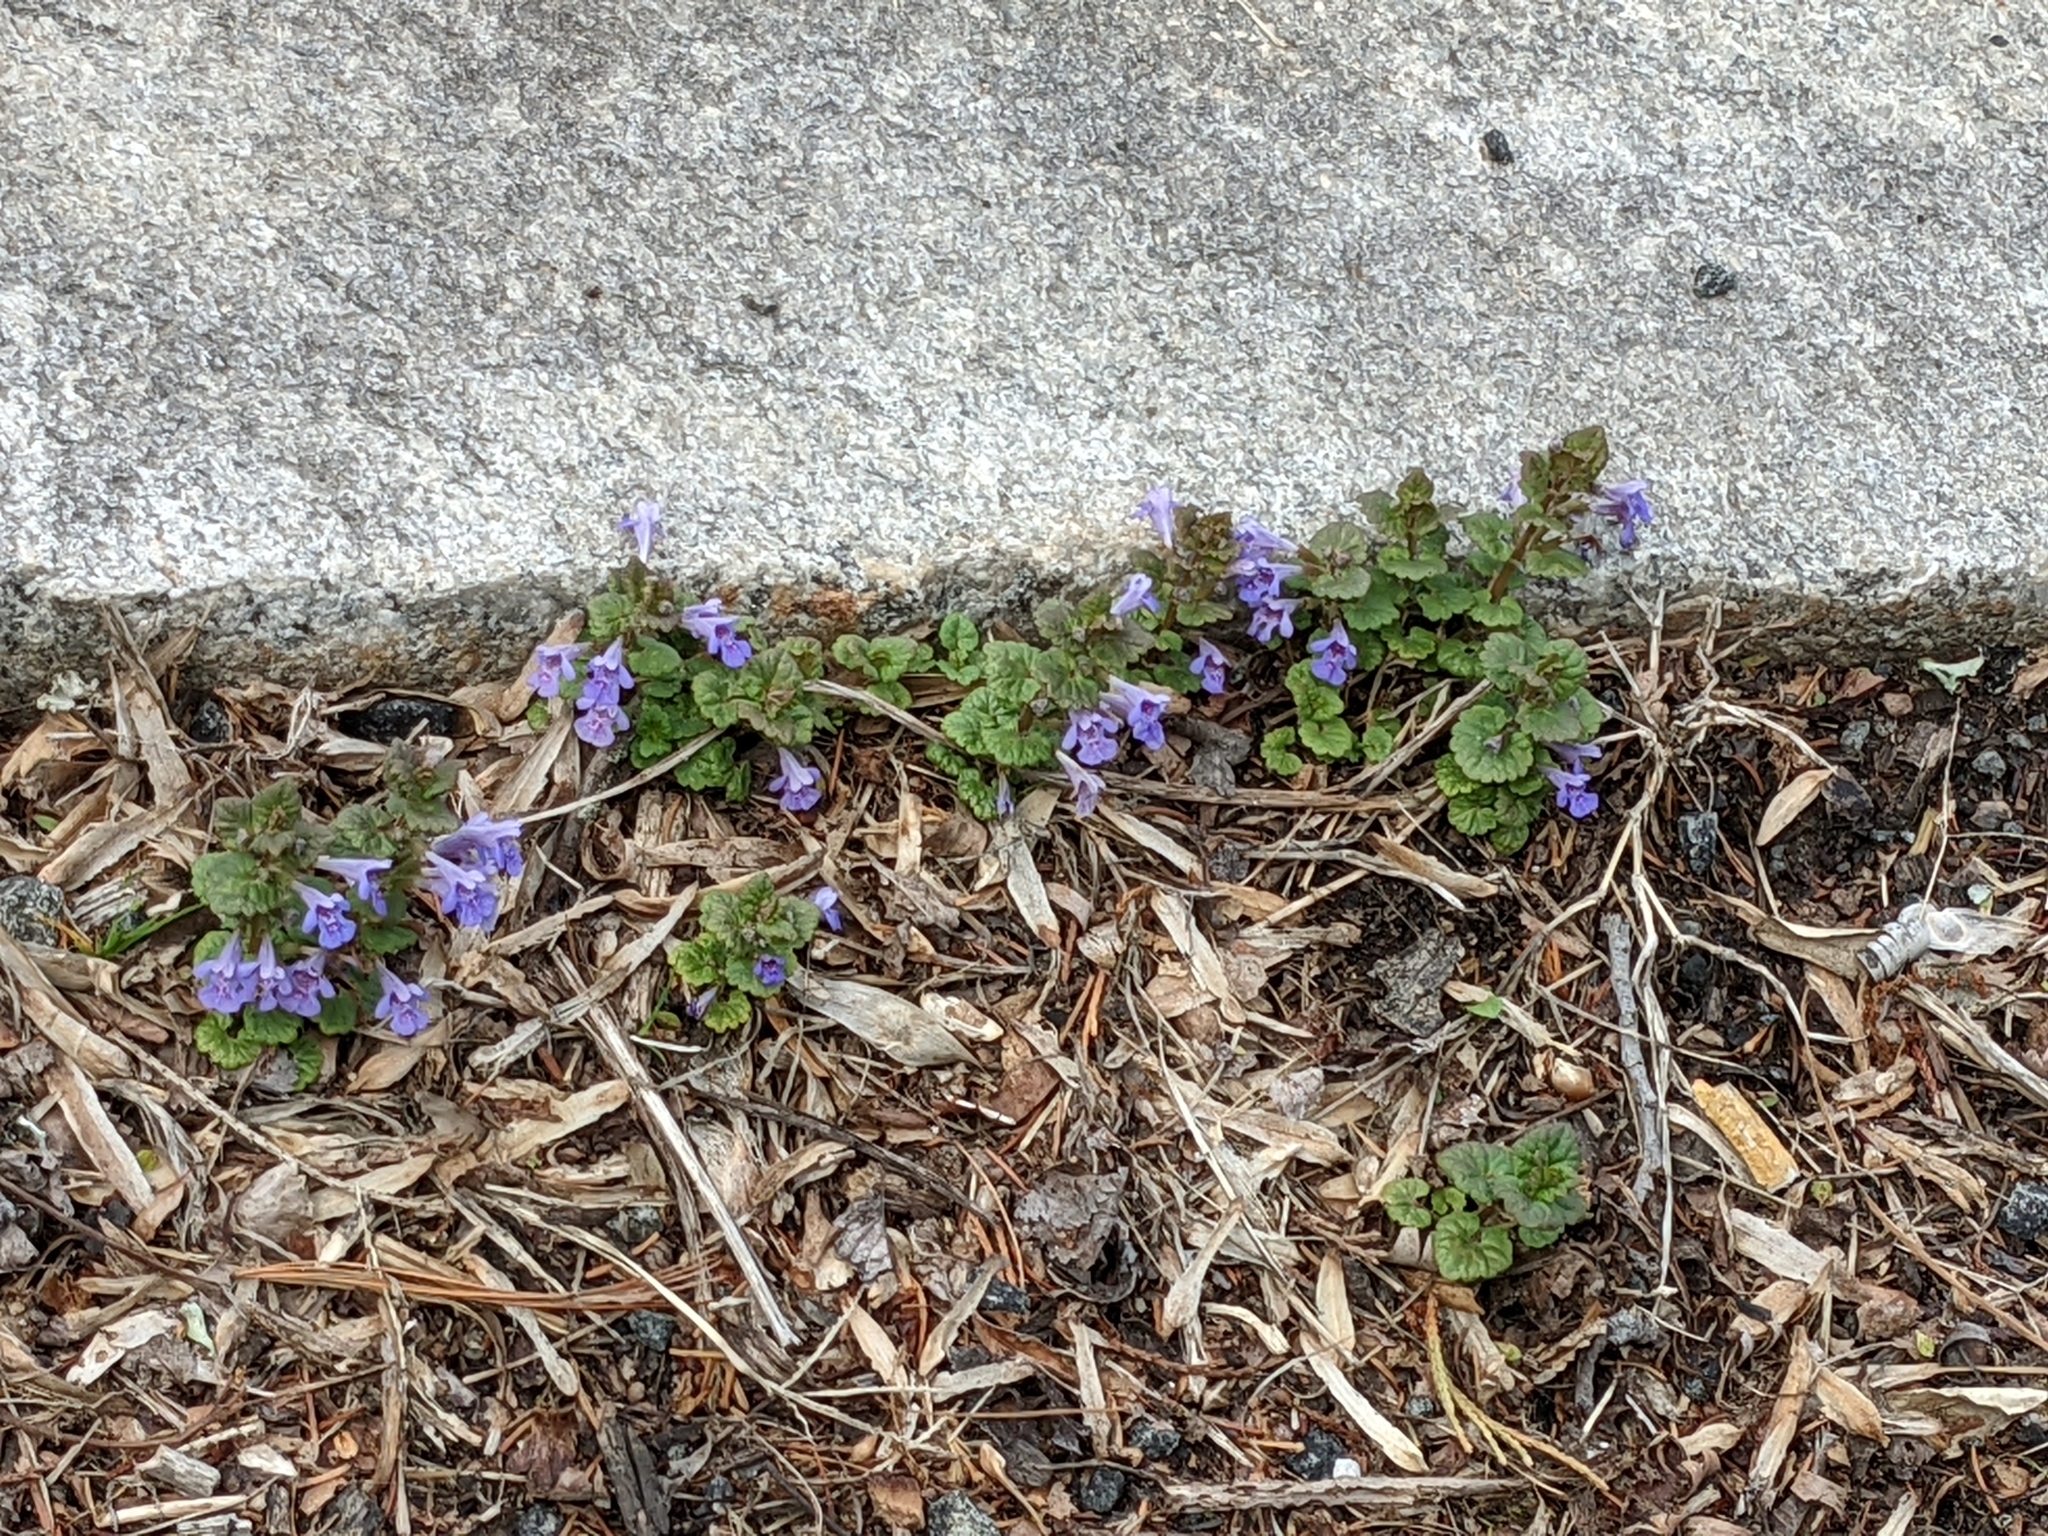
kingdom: Plantae
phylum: Tracheophyta
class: Magnoliopsida
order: Lamiales
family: Lamiaceae
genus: Glechoma
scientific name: Glechoma hederacea
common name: Ground ivy
